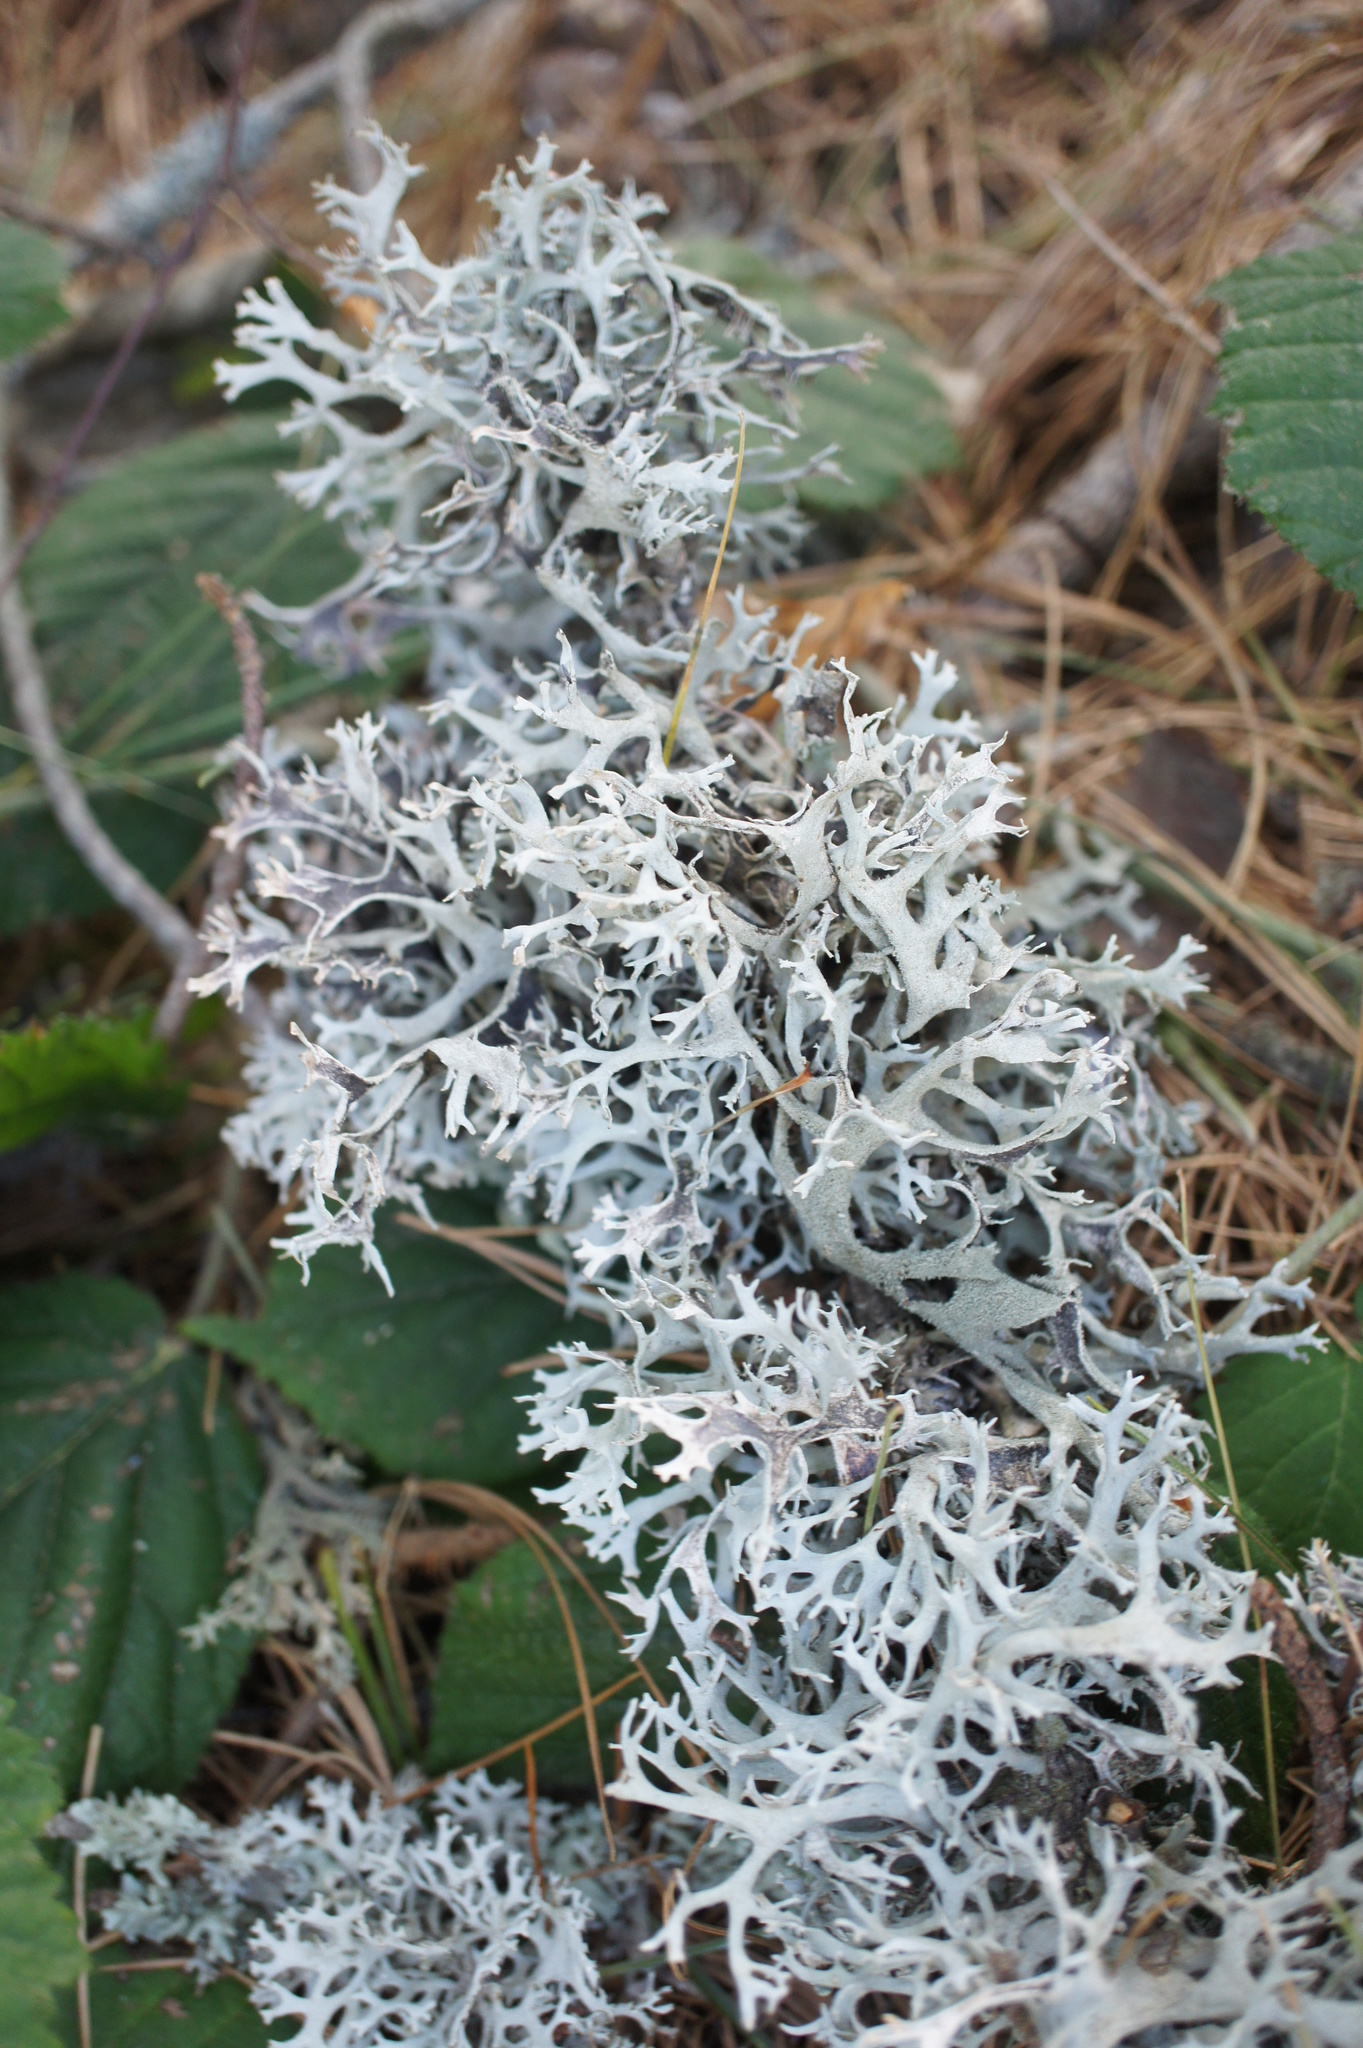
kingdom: Fungi
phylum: Ascomycota
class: Lecanoromycetes
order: Lecanorales
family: Parmeliaceae
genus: Pseudevernia
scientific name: Pseudevernia furfuracea
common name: Tree moss
